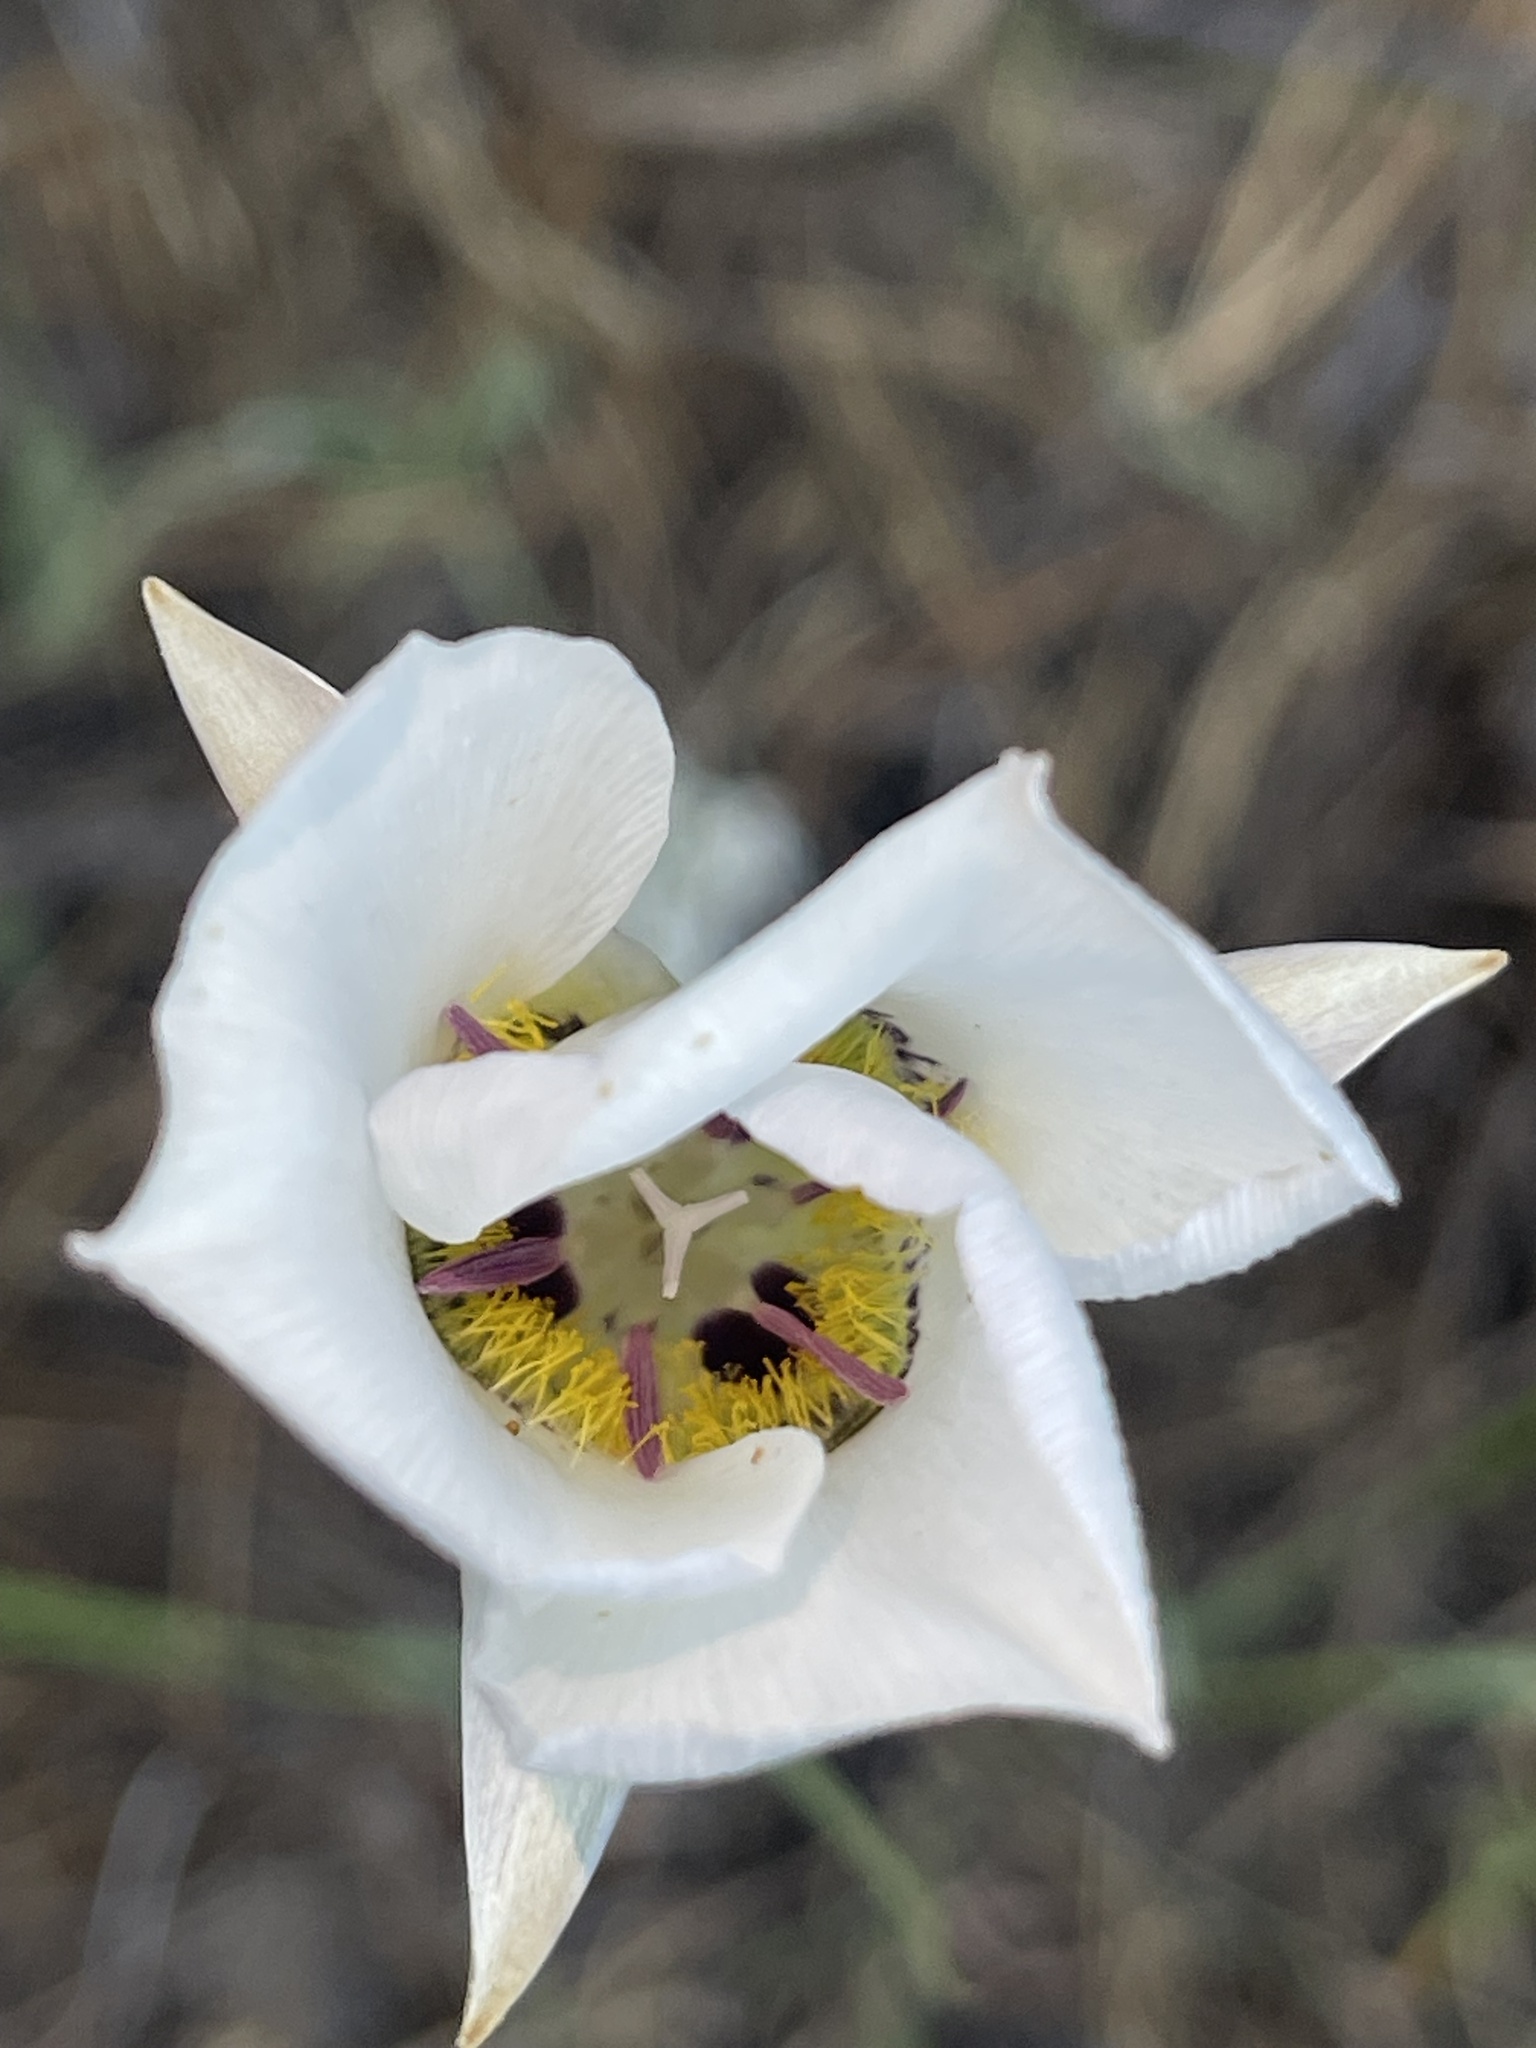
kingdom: Plantae
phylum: Tracheophyta
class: Liliopsida
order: Liliales
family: Liliaceae
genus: Calochortus
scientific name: Calochortus ambiguus
